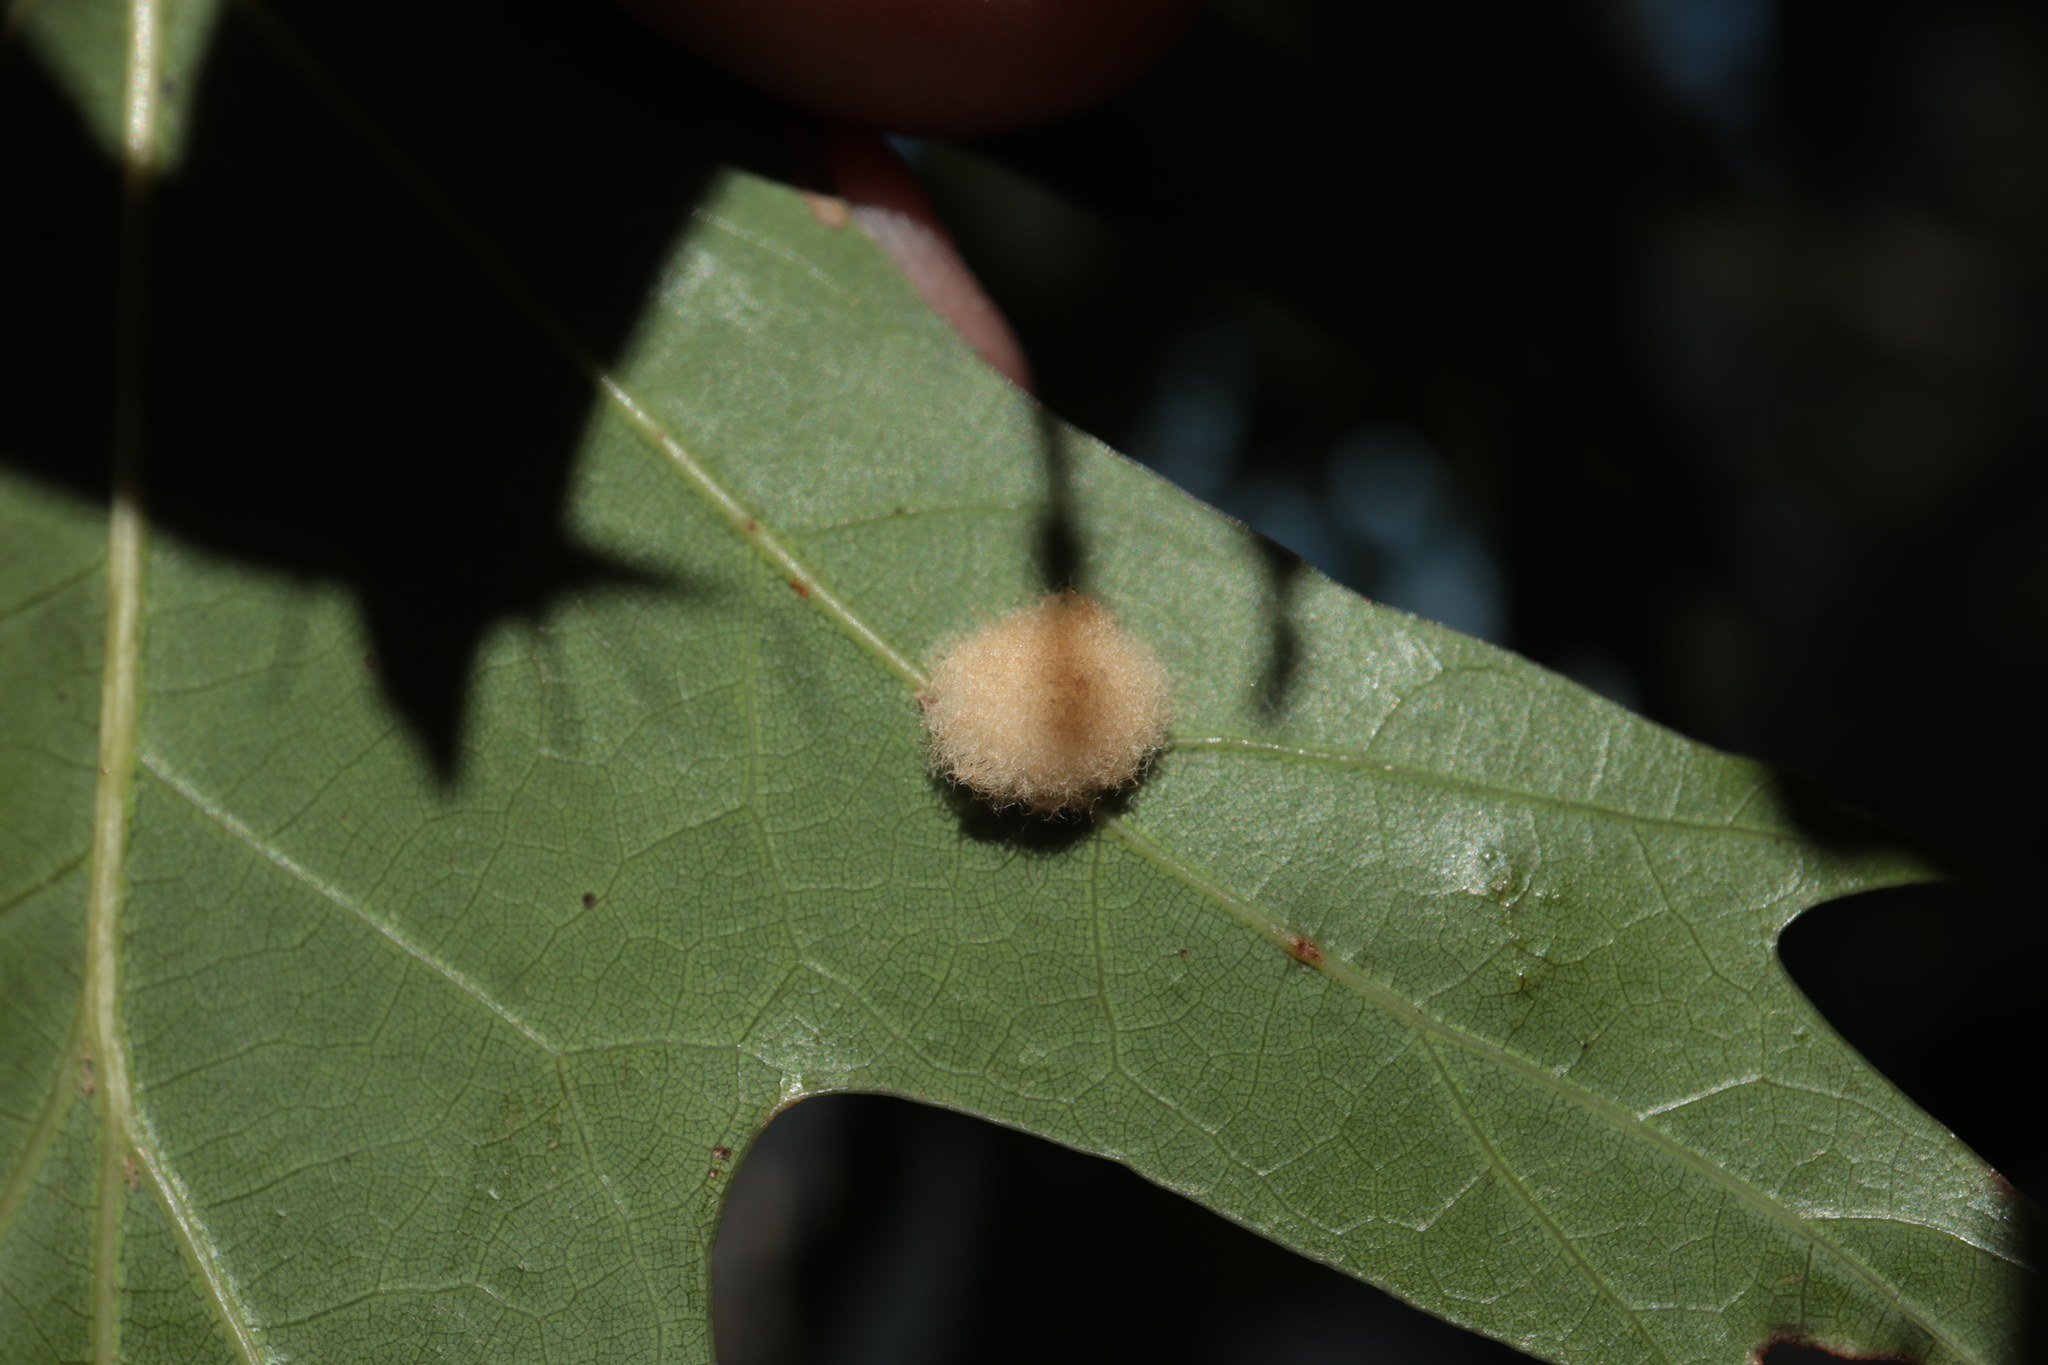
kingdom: Animalia
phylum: Arthropoda
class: Insecta
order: Hymenoptera
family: Cynipidae
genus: Callirhytis
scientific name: Callirhytis
